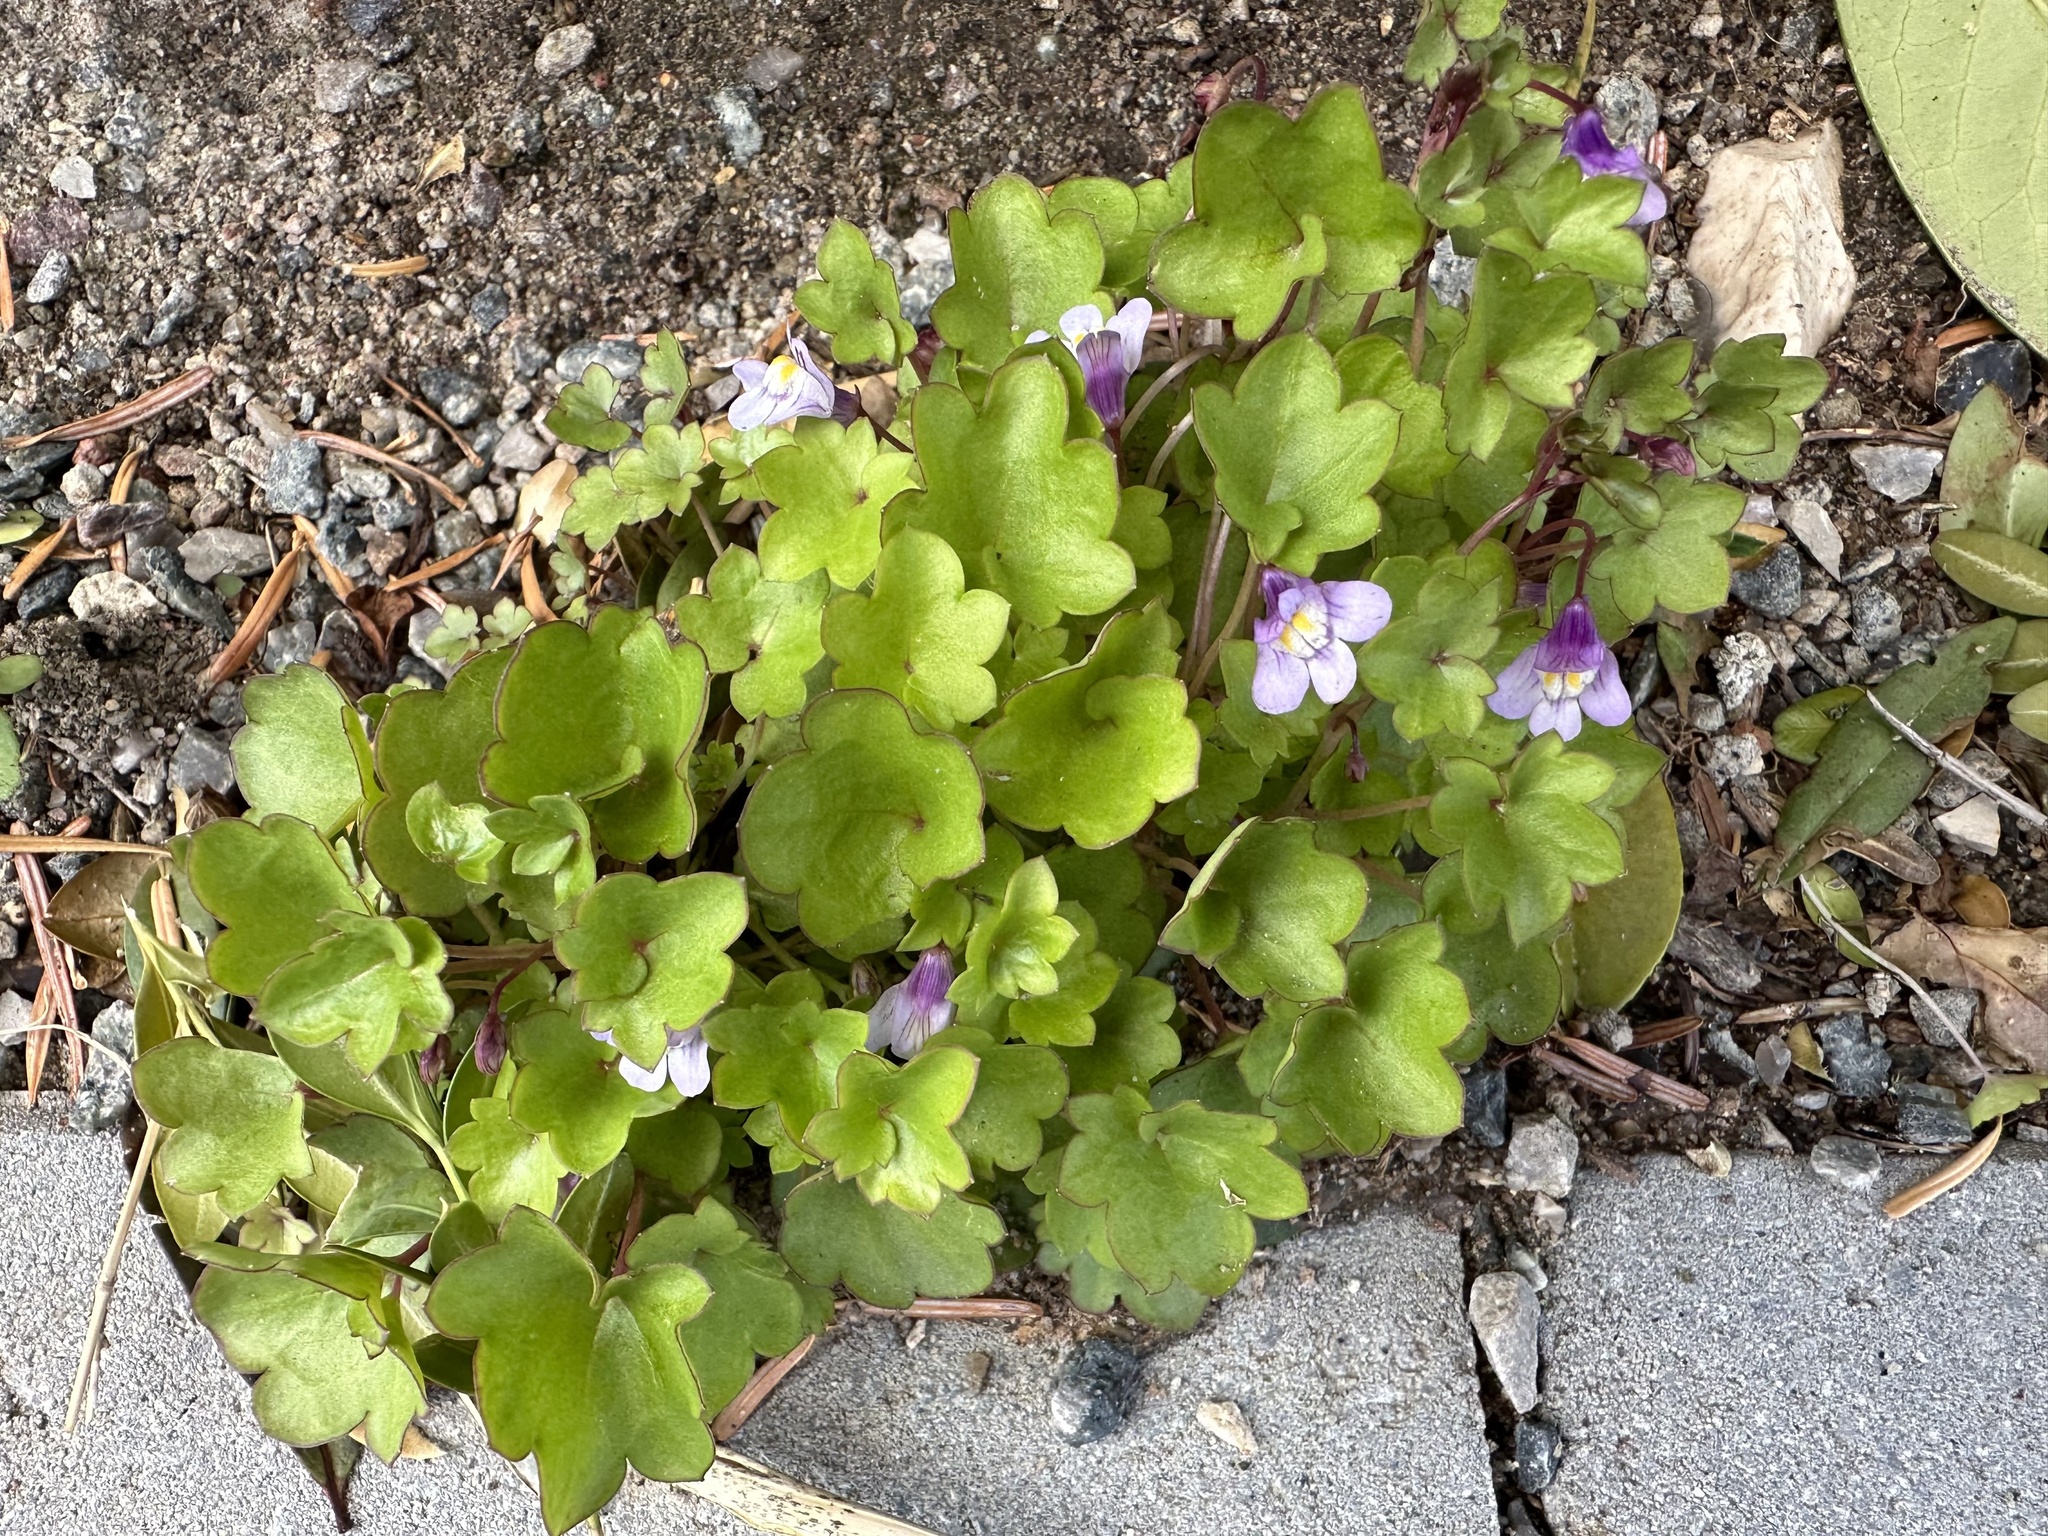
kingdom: Plantae
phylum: Tracheophyta
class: Magnoliopsida
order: Lamiales
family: Plantaginaceae
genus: Cymbalaria
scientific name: Cymbalaria muralis
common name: Ivy-leaved toadflax
